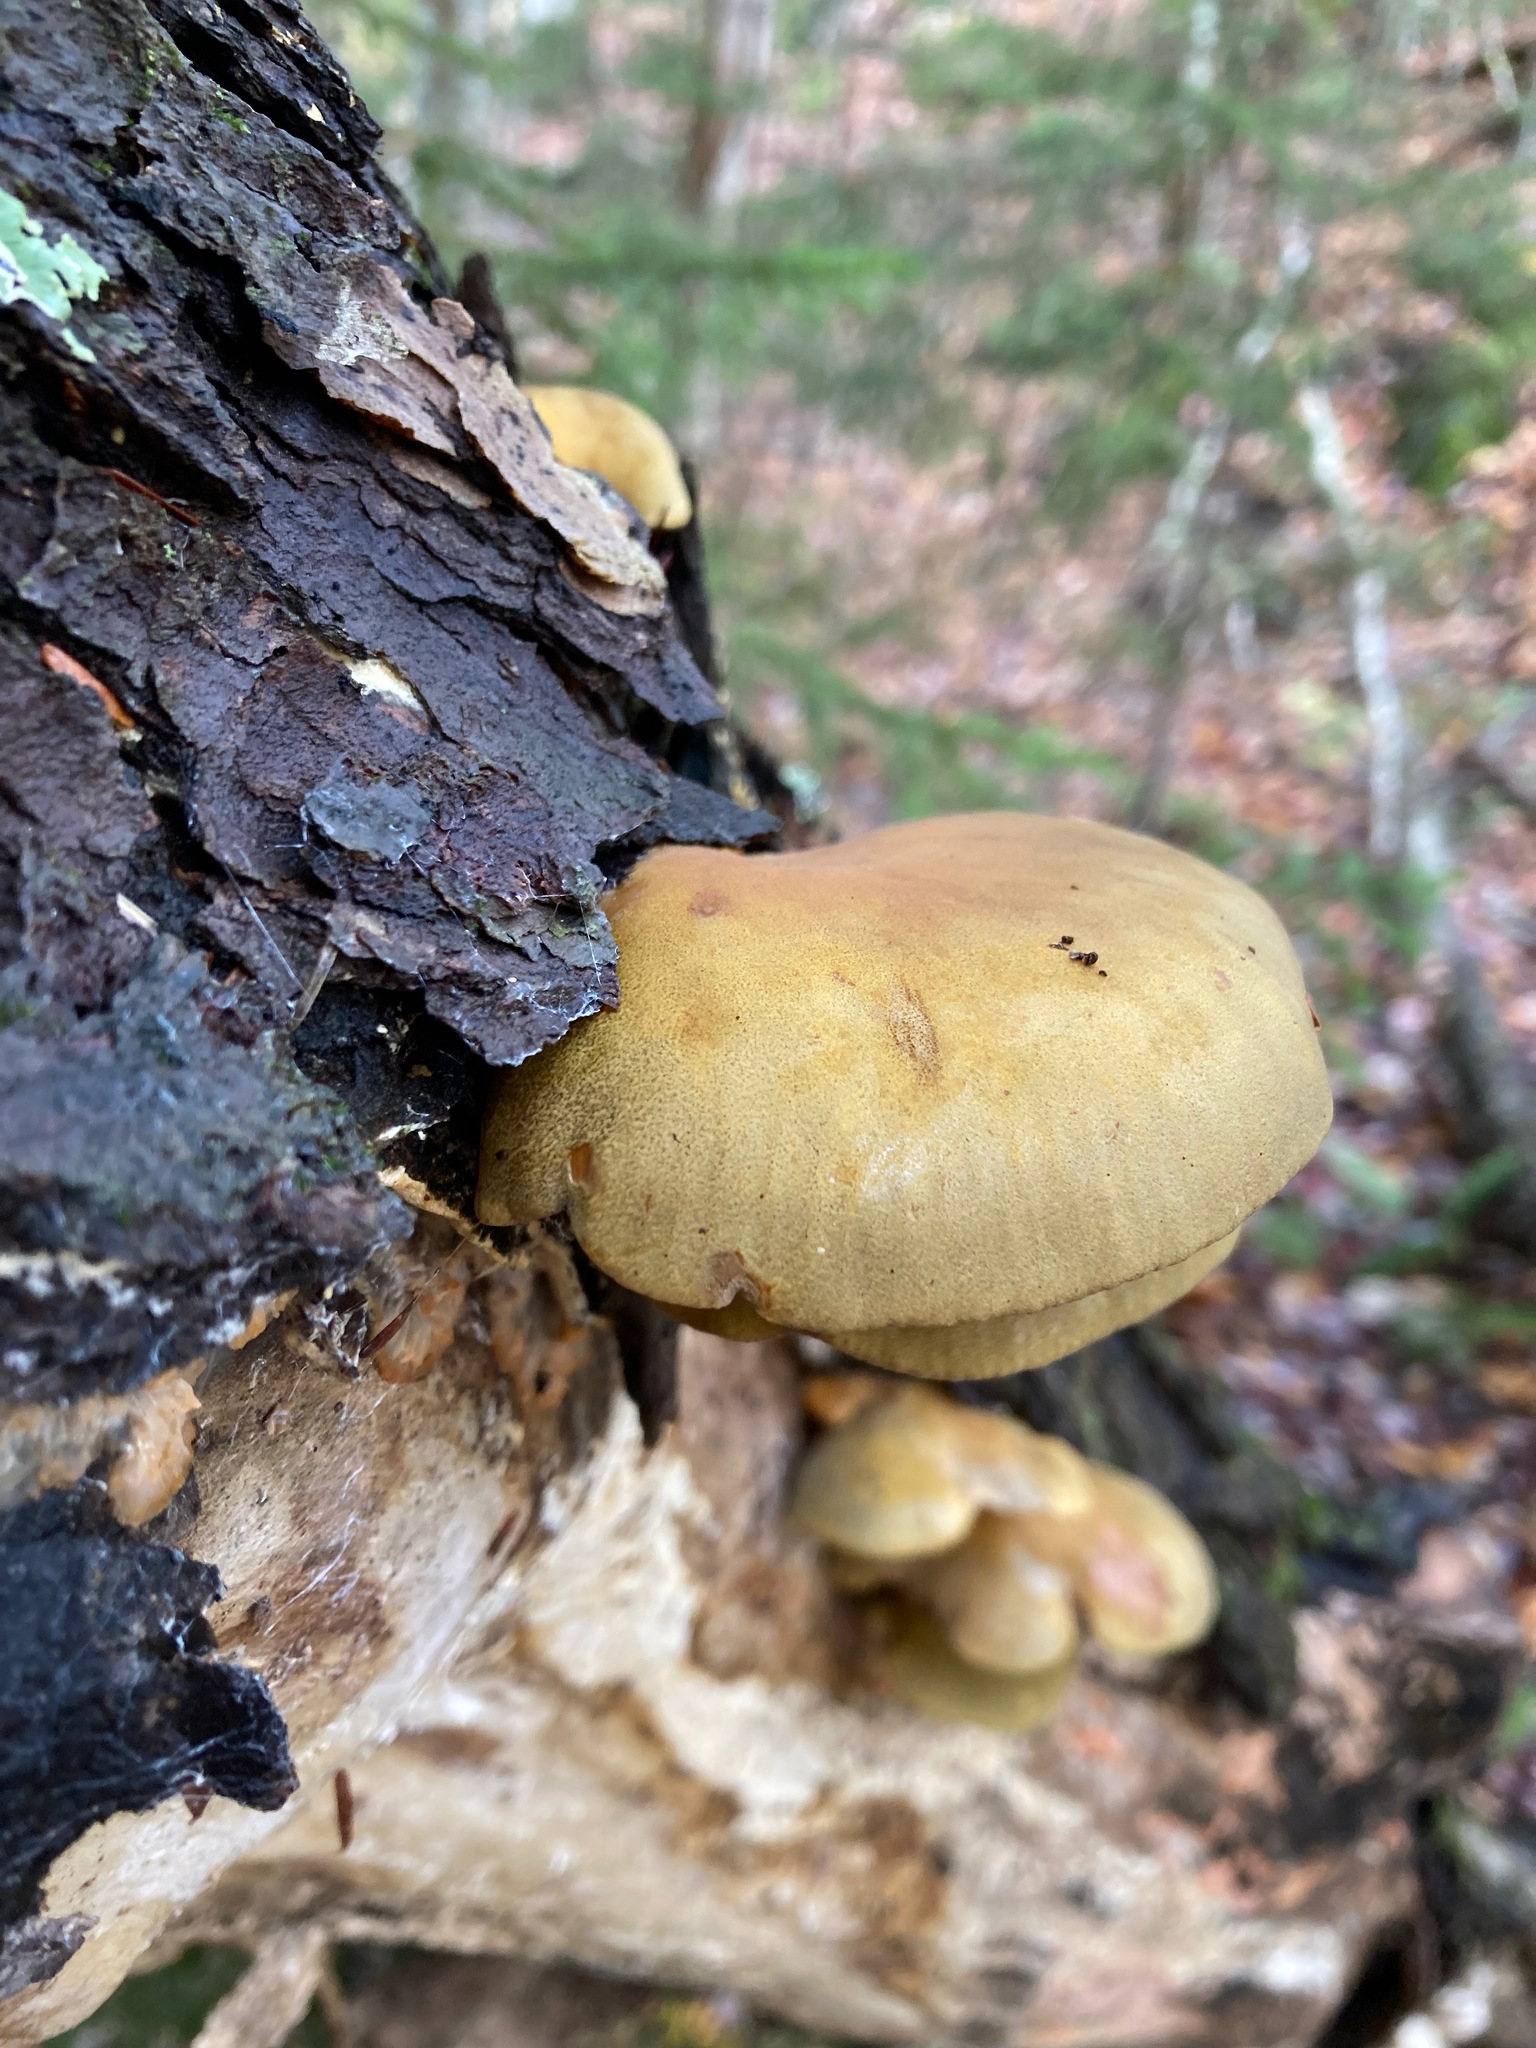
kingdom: Fungi
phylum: Basidiomycota
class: Agaricomycetes
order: Agaricales
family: Sarcomyxaceae
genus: Sarcomyxa
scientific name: Sarcomyxa serotina
